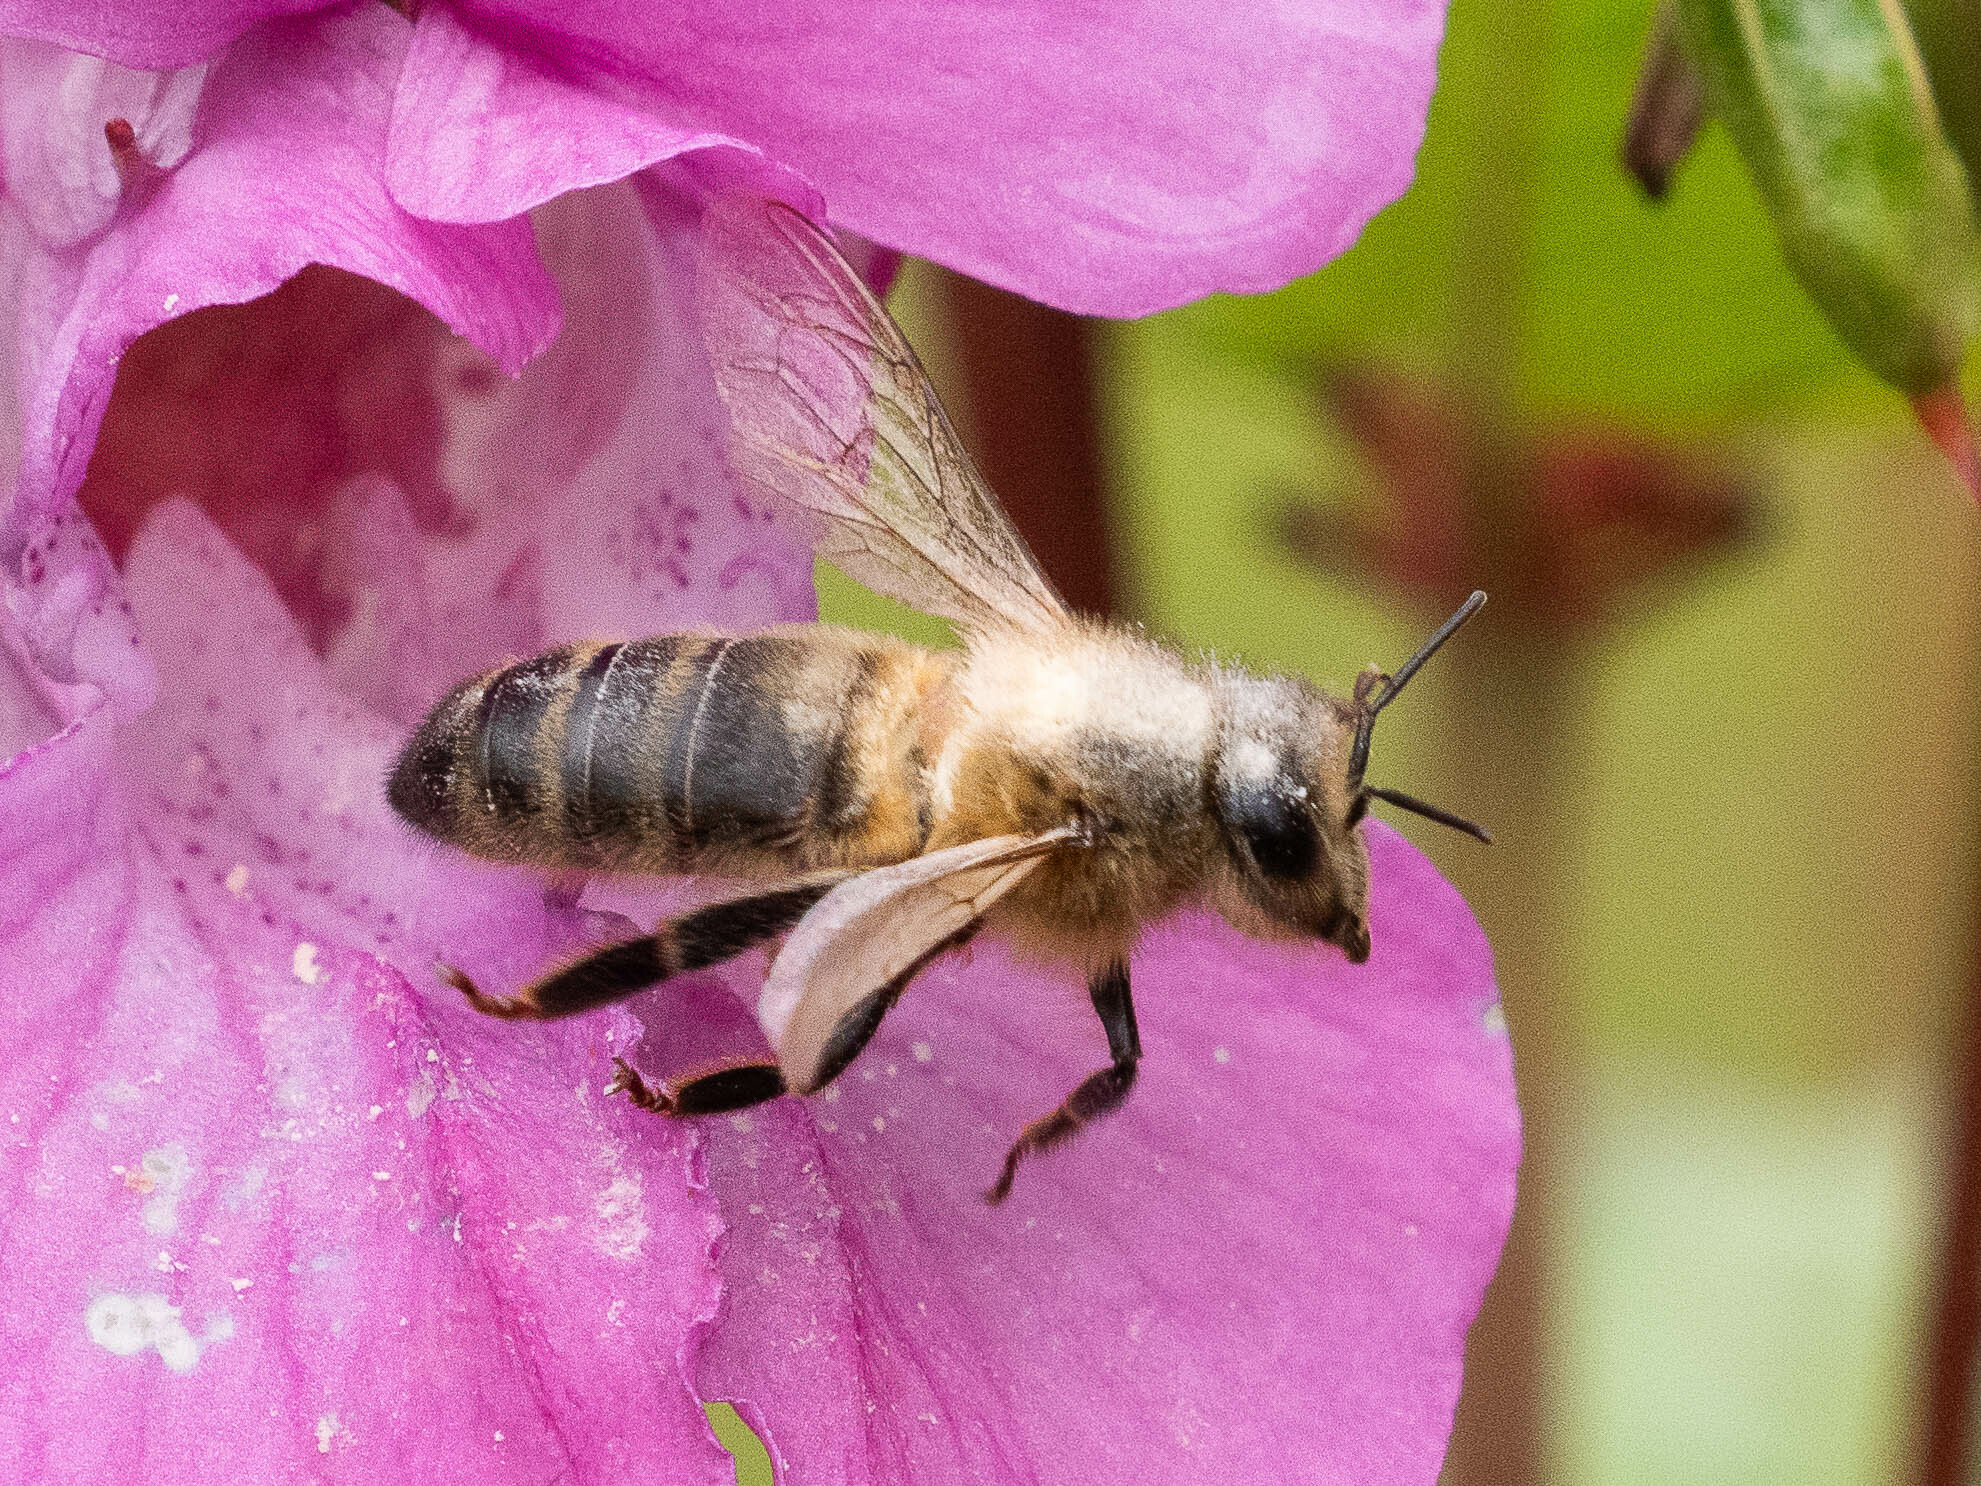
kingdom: Animalia
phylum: Arthropoda
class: Insecta
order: Hymenoptera
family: Apidae
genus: Apis
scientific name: Apis mellifera
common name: Honey bee
